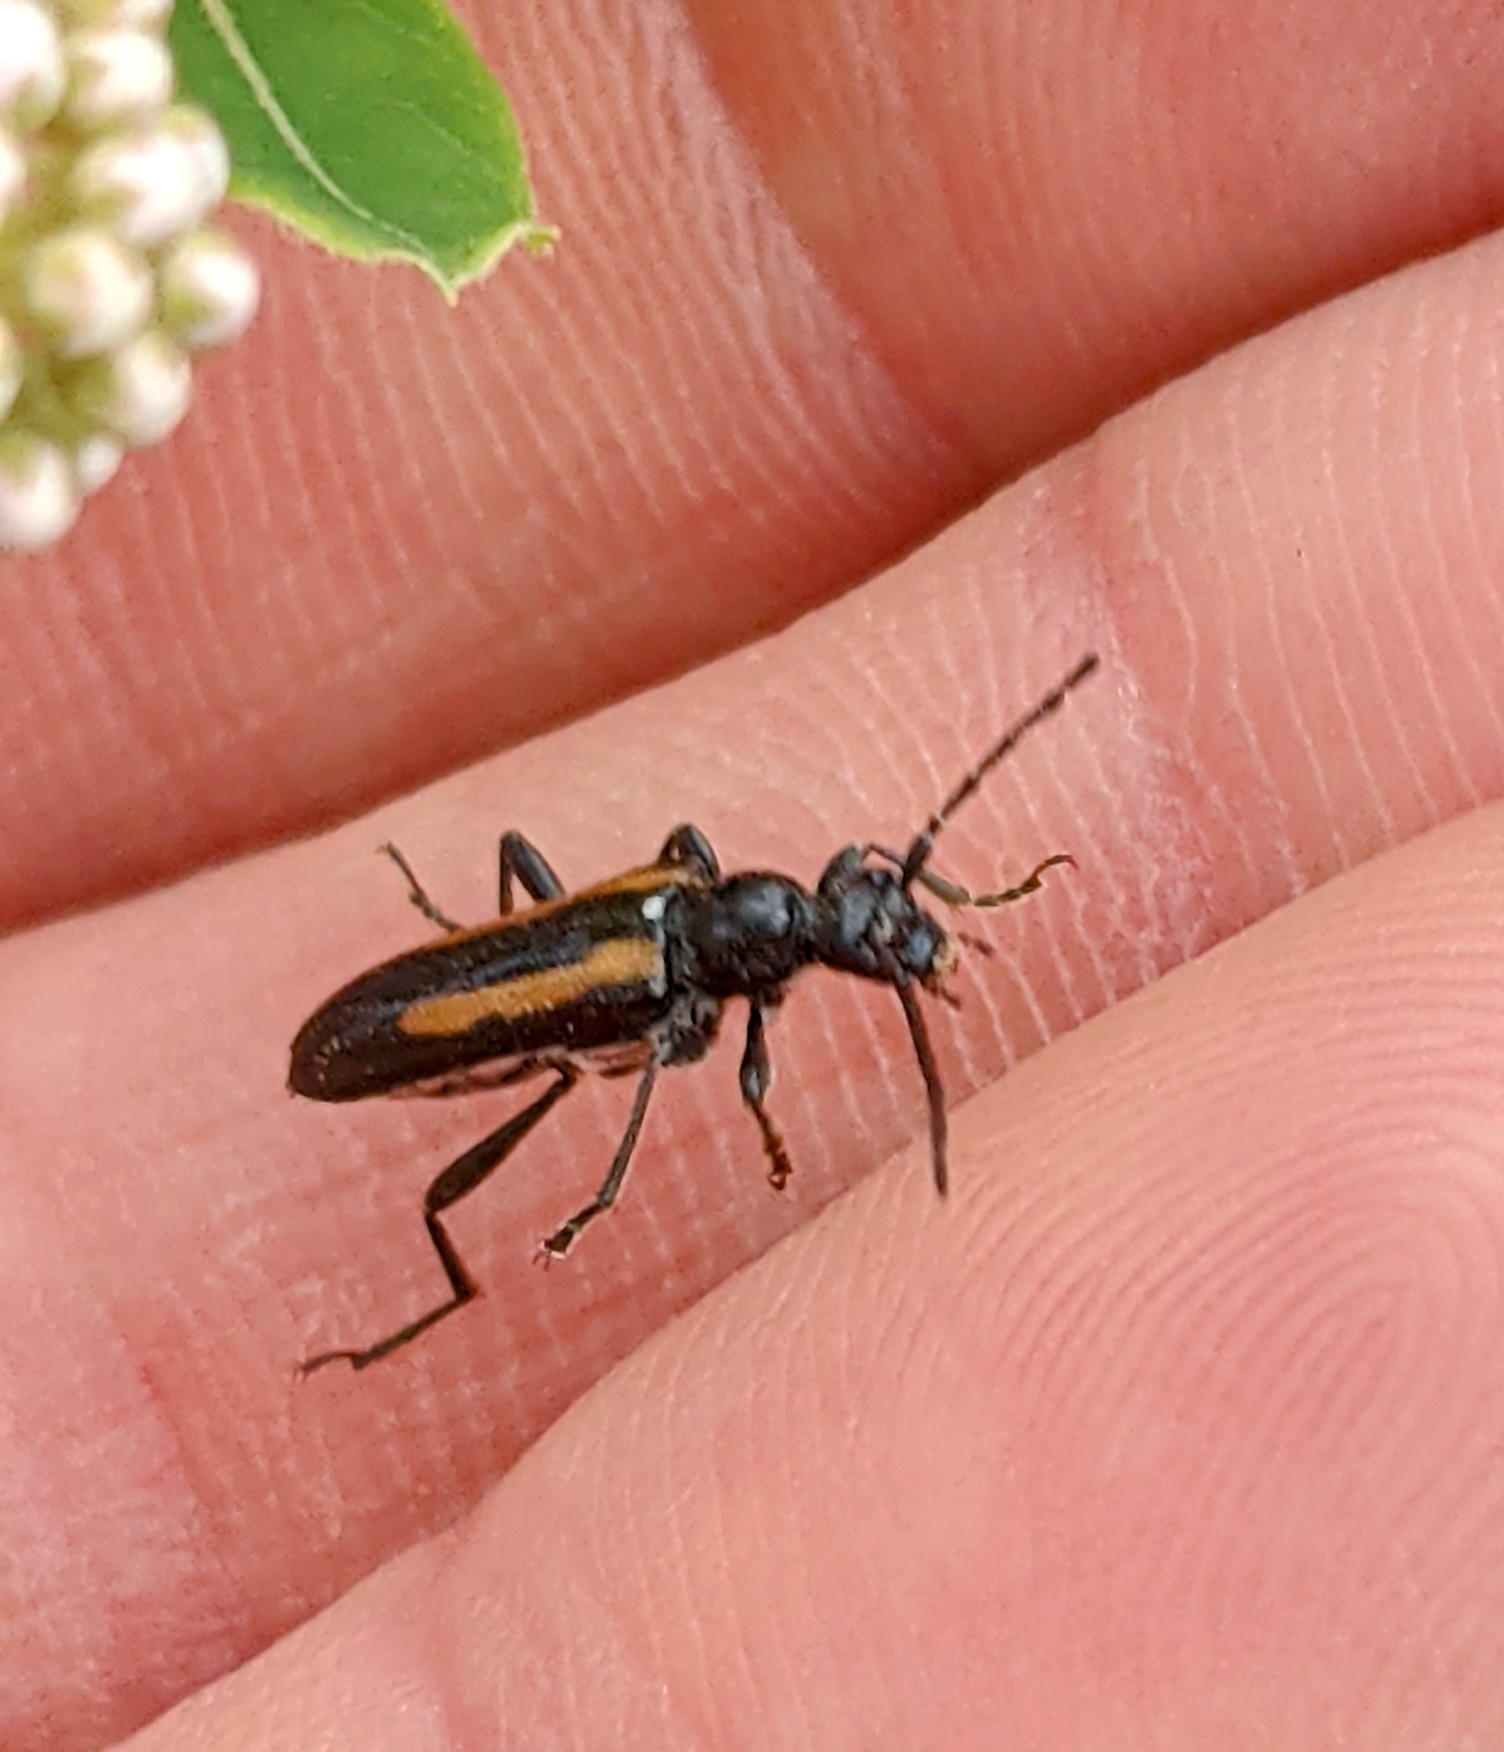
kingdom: Animalia
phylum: Arthropoda
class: Insecta
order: Coleoptera
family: Cerambycidae
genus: Strangalepta
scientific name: Strangalepta abbreviata
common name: Strangalepta flower longhorn beetle
